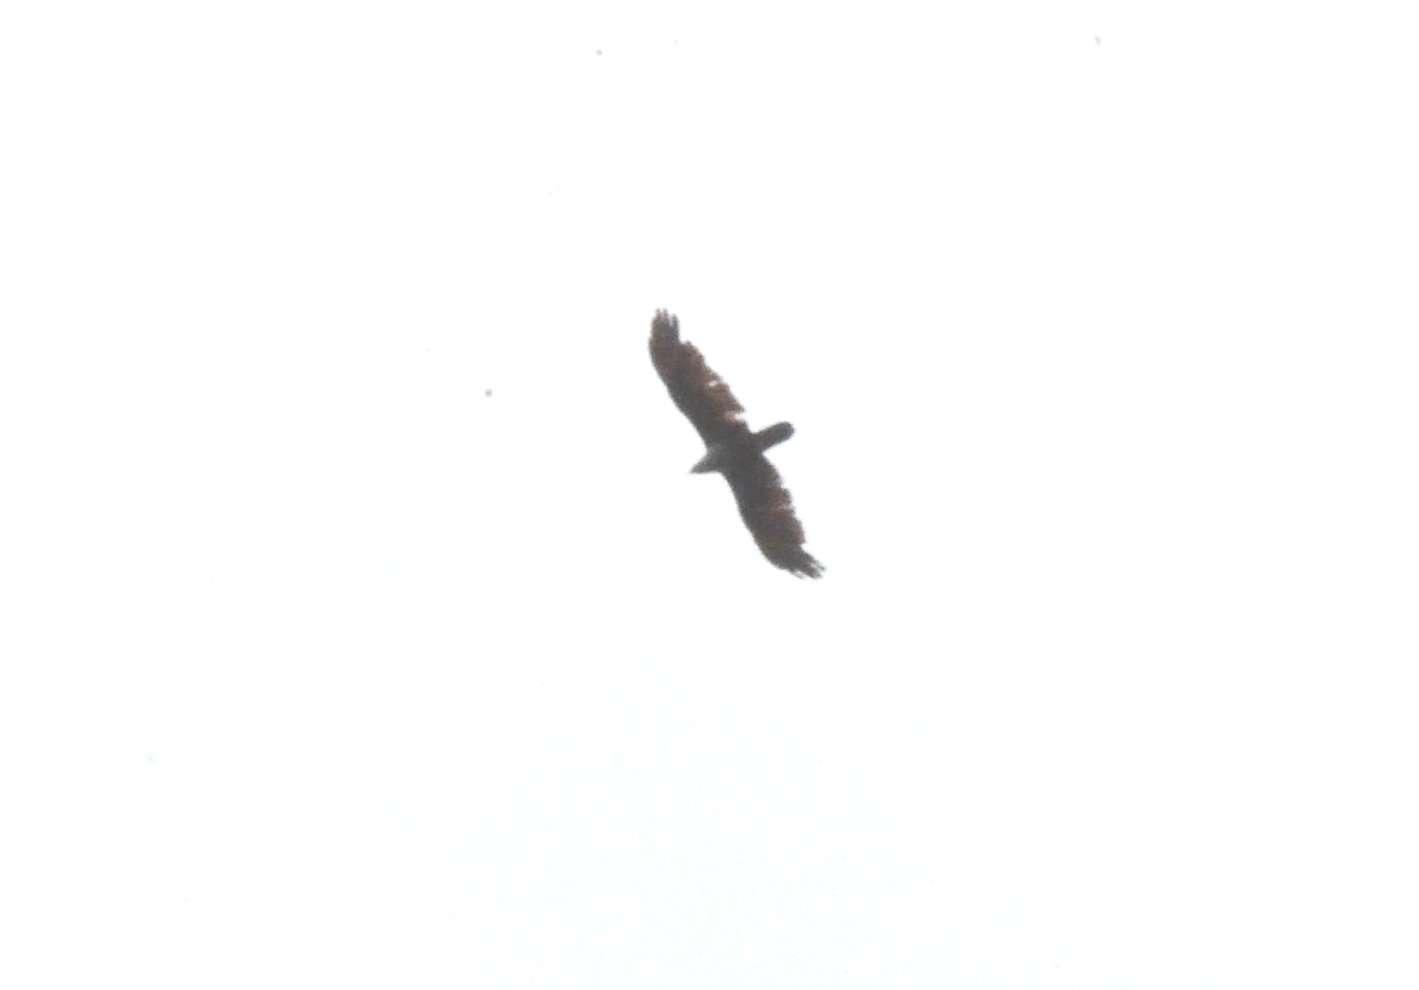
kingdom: Animalia
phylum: Chordata
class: Aves
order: Accipitriformes
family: Accipitridae
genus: Haliastur
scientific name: Haliastur indus
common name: Brahminy kite
